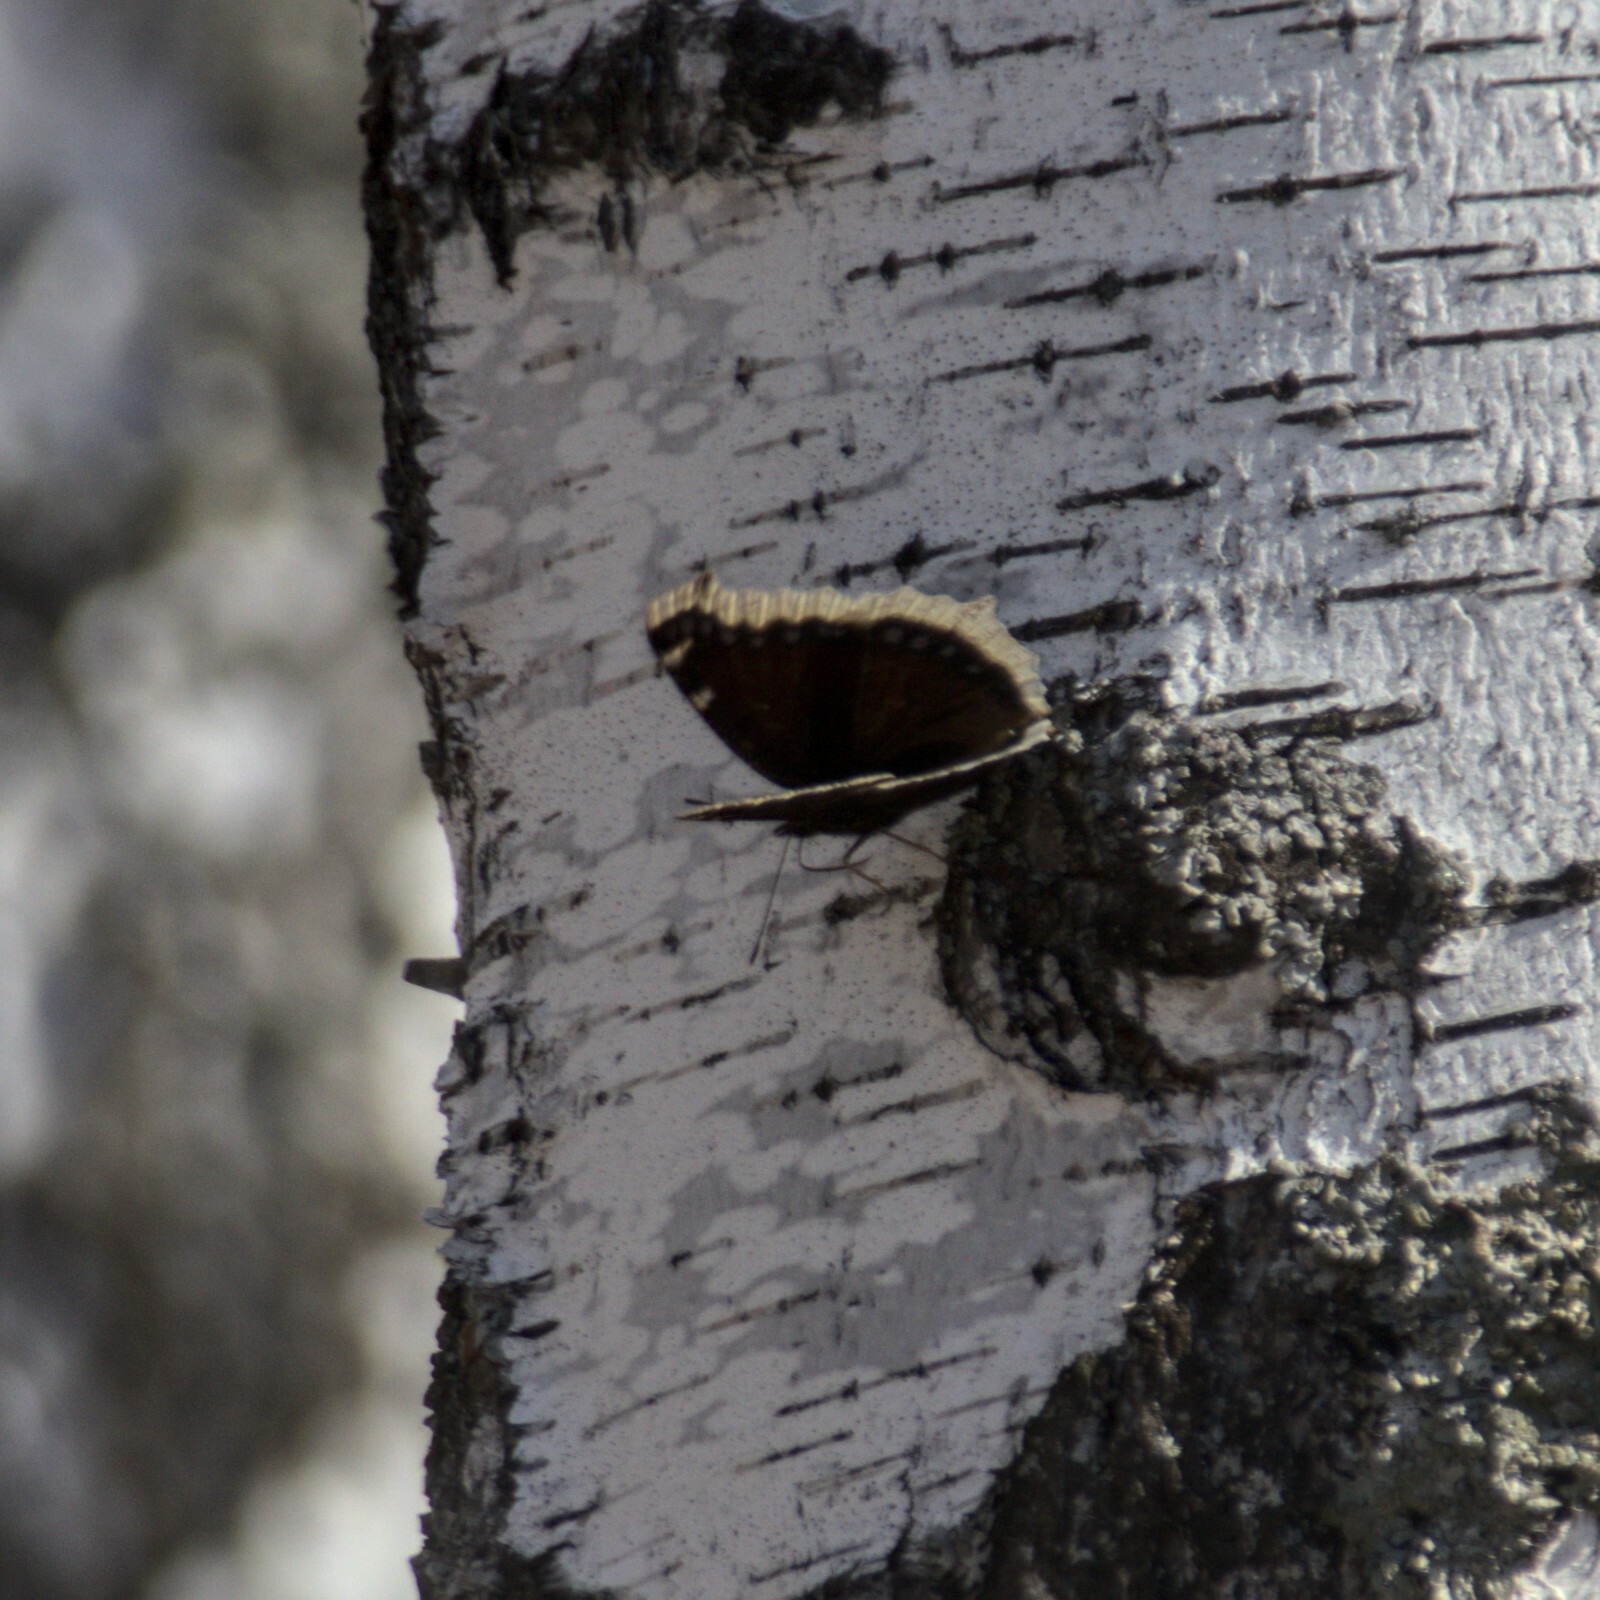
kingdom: Animalia
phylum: Arthropoda
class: Insecta
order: Lepidoptera
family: Nymphalidae
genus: Nymphalis
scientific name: Nymphalis antiopa
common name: Camberwell beauty
